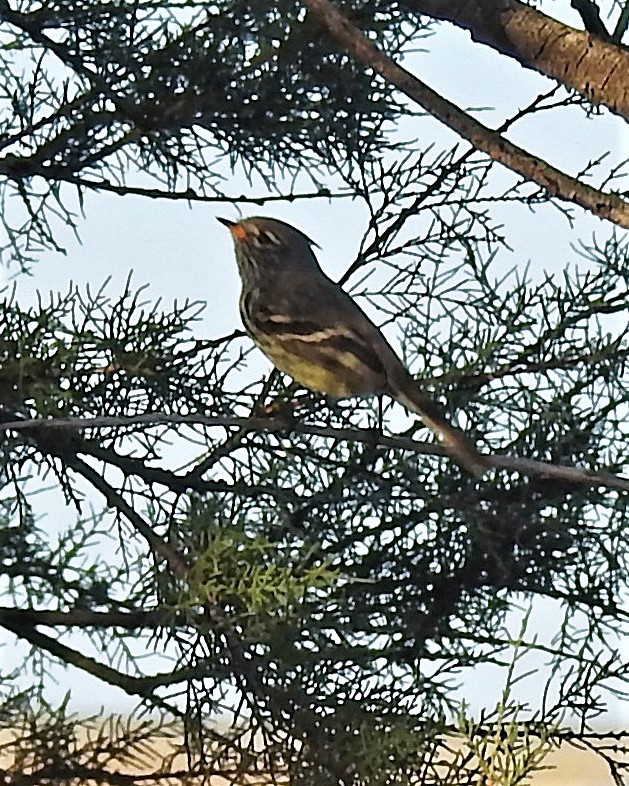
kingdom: Animalia
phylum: Chordata
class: Aves
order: Passeriformes
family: Tyrannidae
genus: Anairetes
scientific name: Anairetes flavirostris
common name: Yellow-billed tit-tyrant
